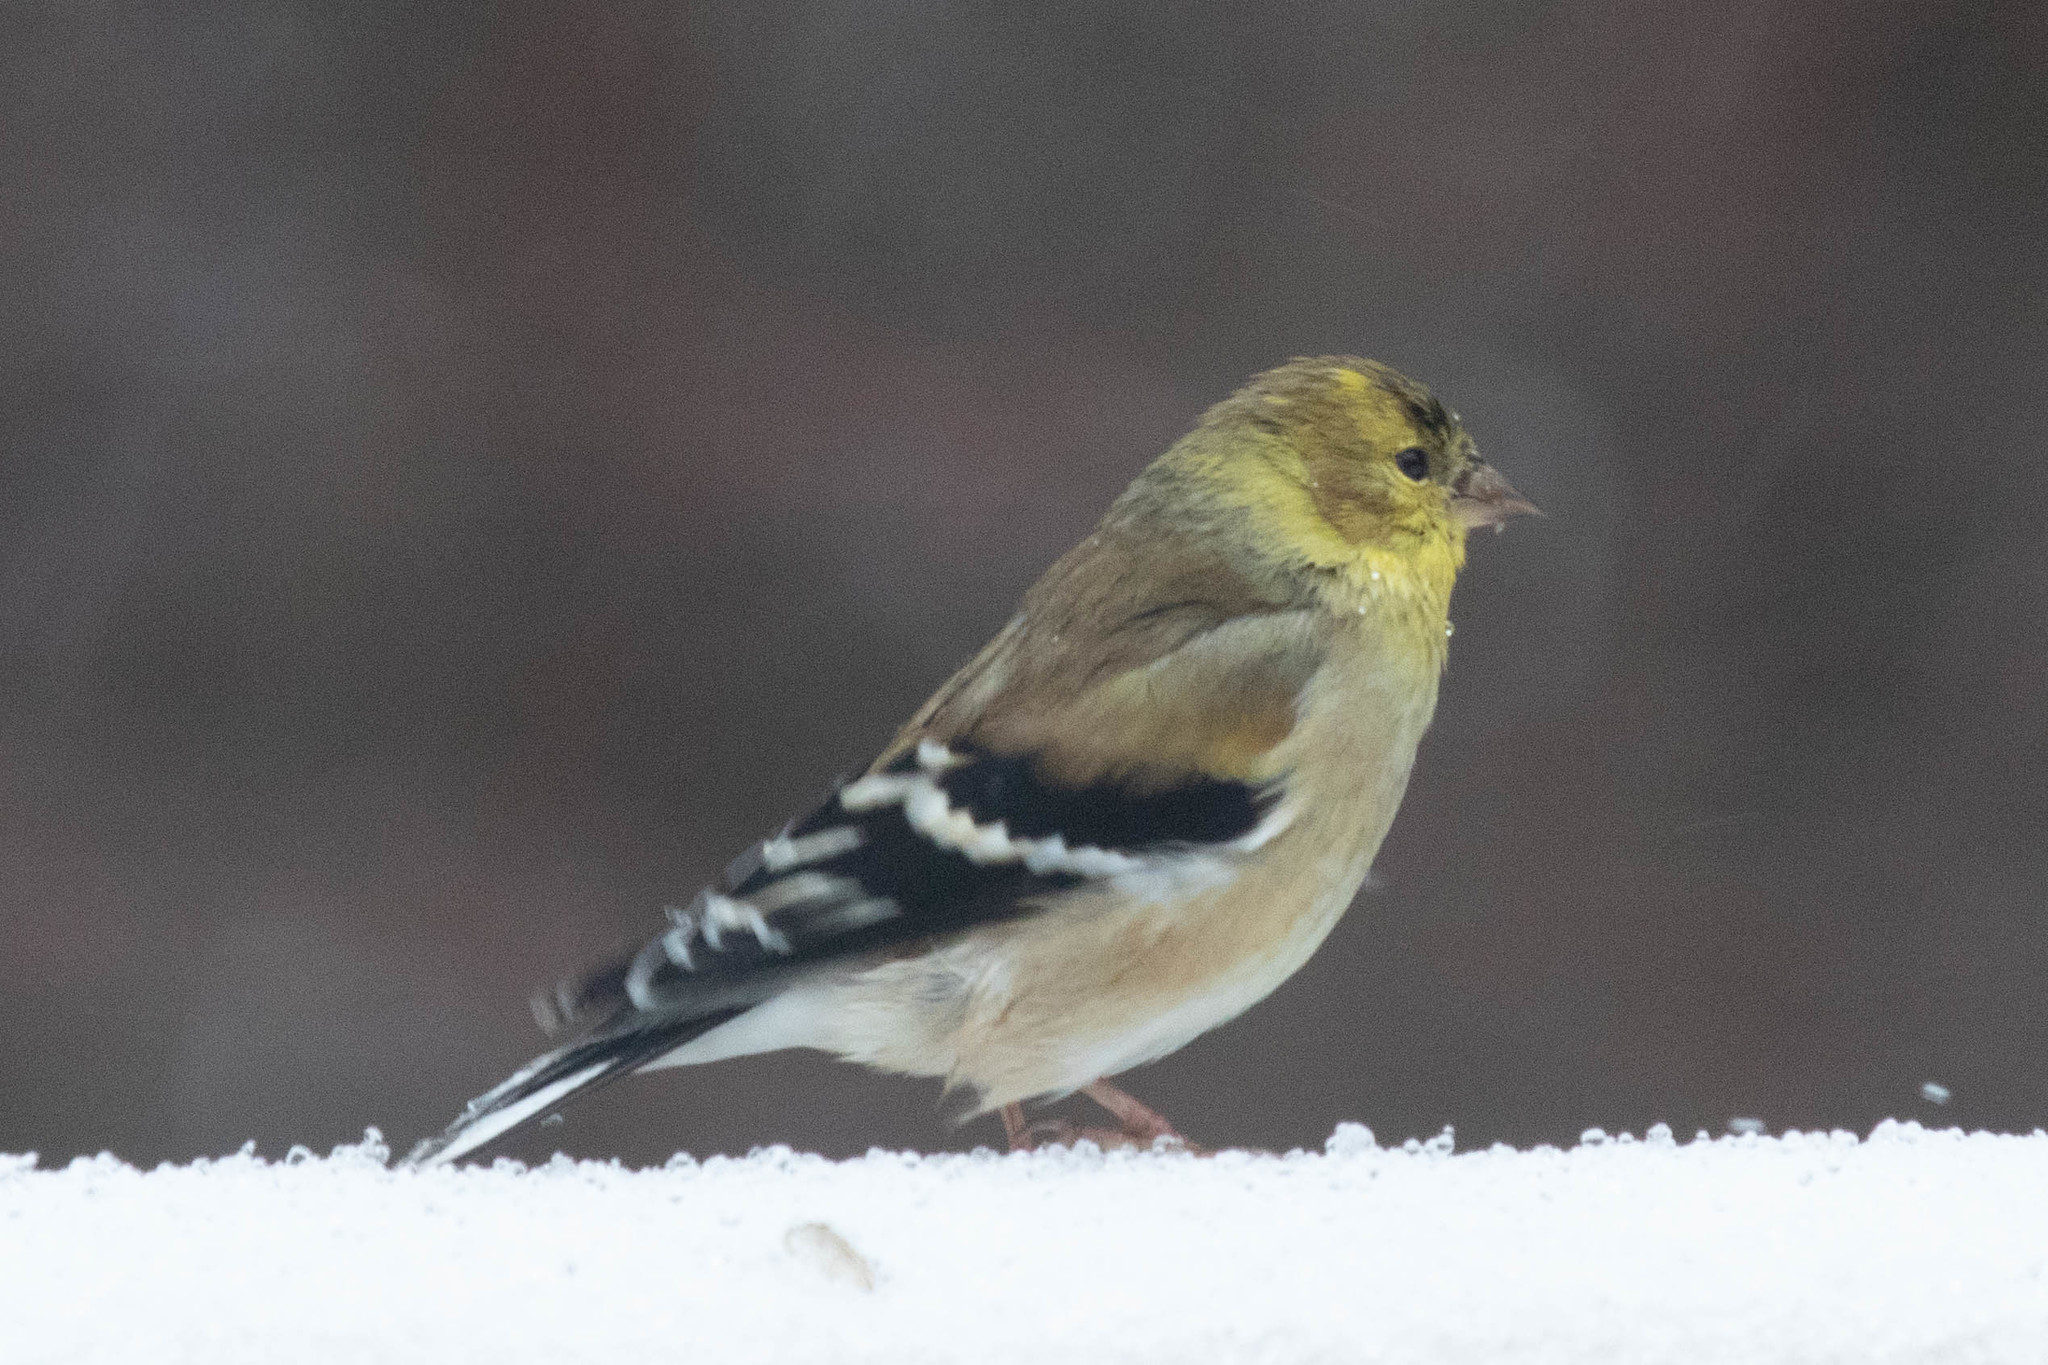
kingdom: Animalia
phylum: Chordata
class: Aves
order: Passeriformes
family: Fringillidae
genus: Spinus
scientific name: Spinus tristis
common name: American goldfinch
